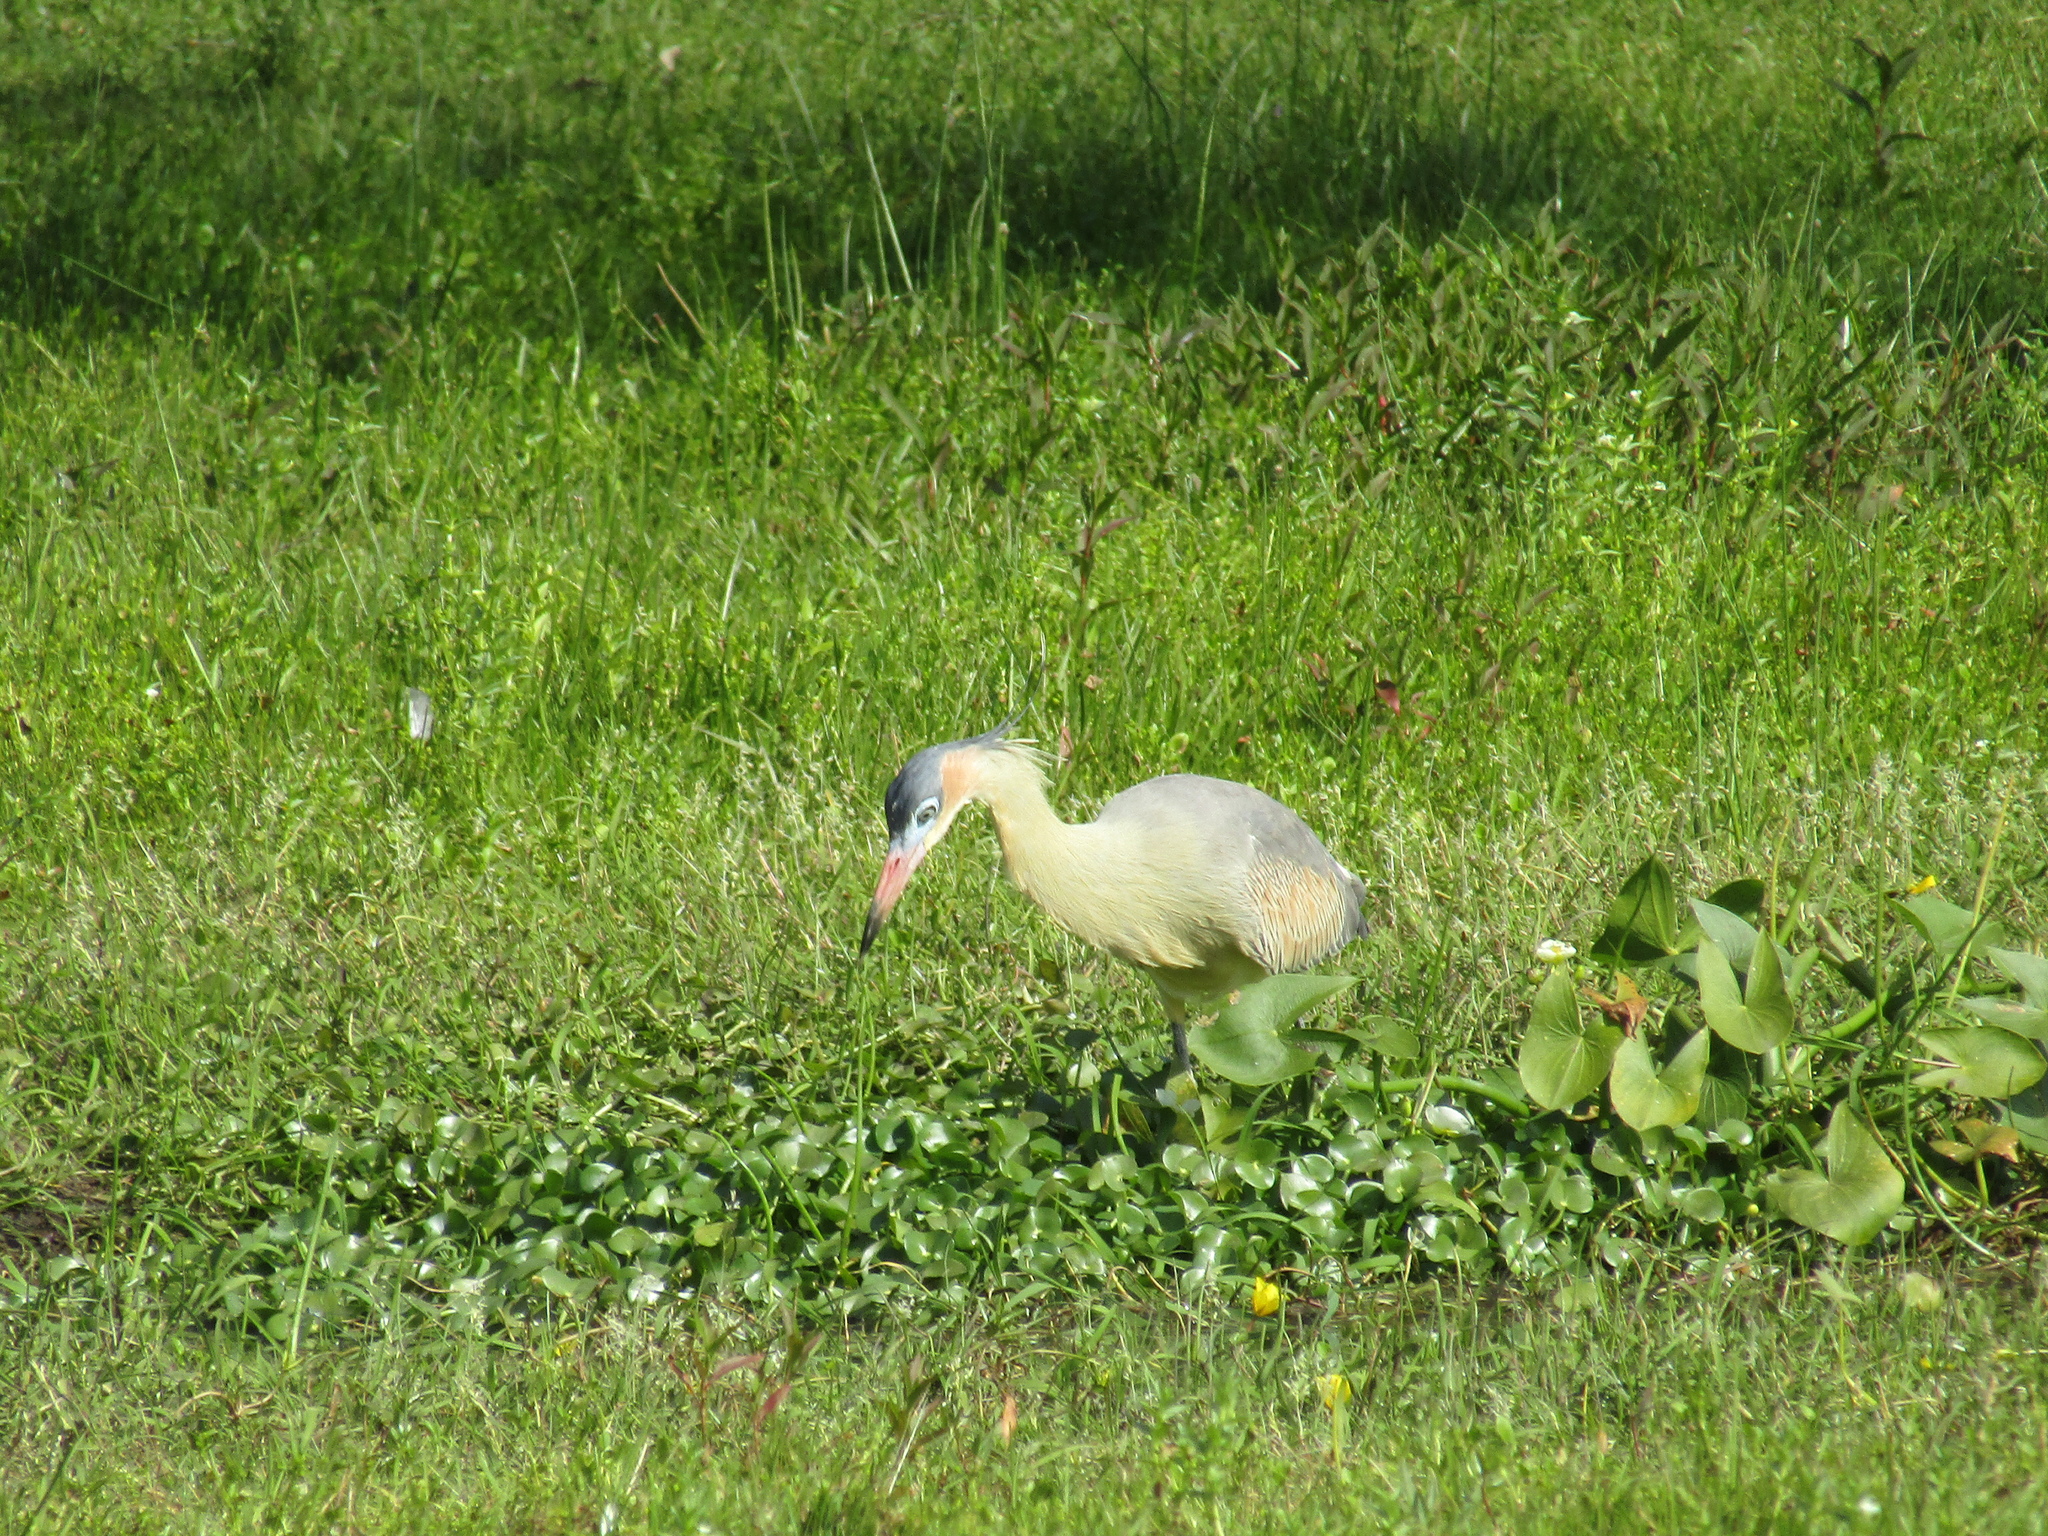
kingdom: Animalia
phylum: Chordata
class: Aves
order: Pelecaniformes
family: Ardeidae
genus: Syrigma
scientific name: Syrigma sibilatrix
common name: Whistling heron
